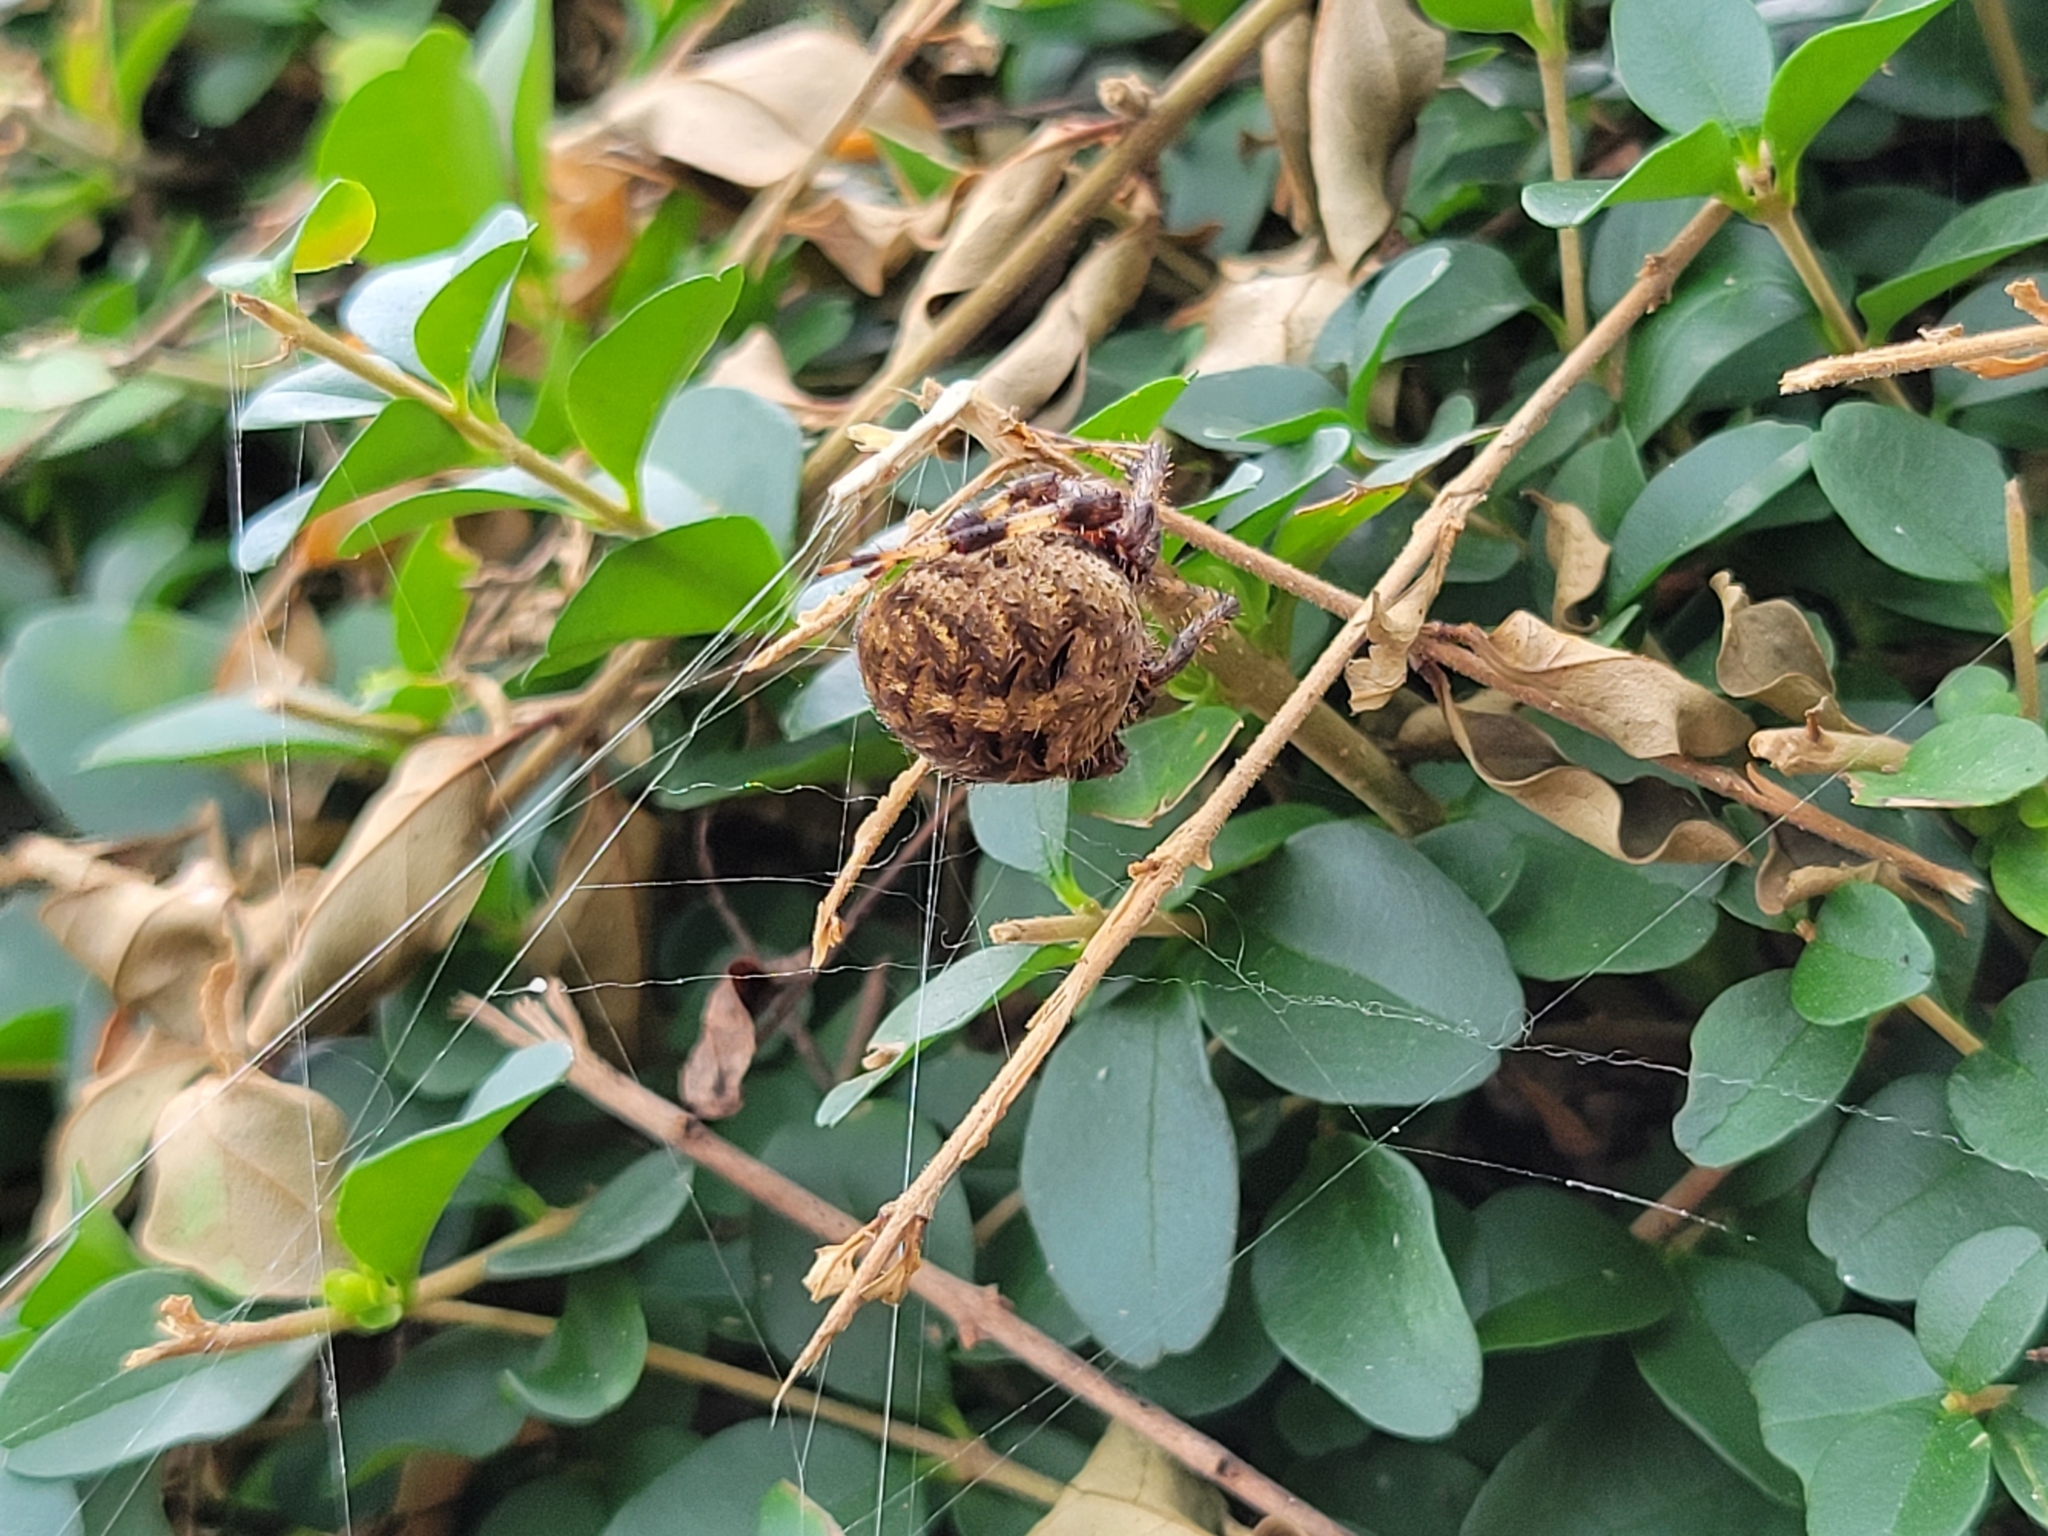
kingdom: Animalia
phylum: Arthropoda
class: Arachnida
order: Araneae
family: Araneidae
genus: Neoscona
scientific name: Neoscona crucifera
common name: Spotted orbweaver
